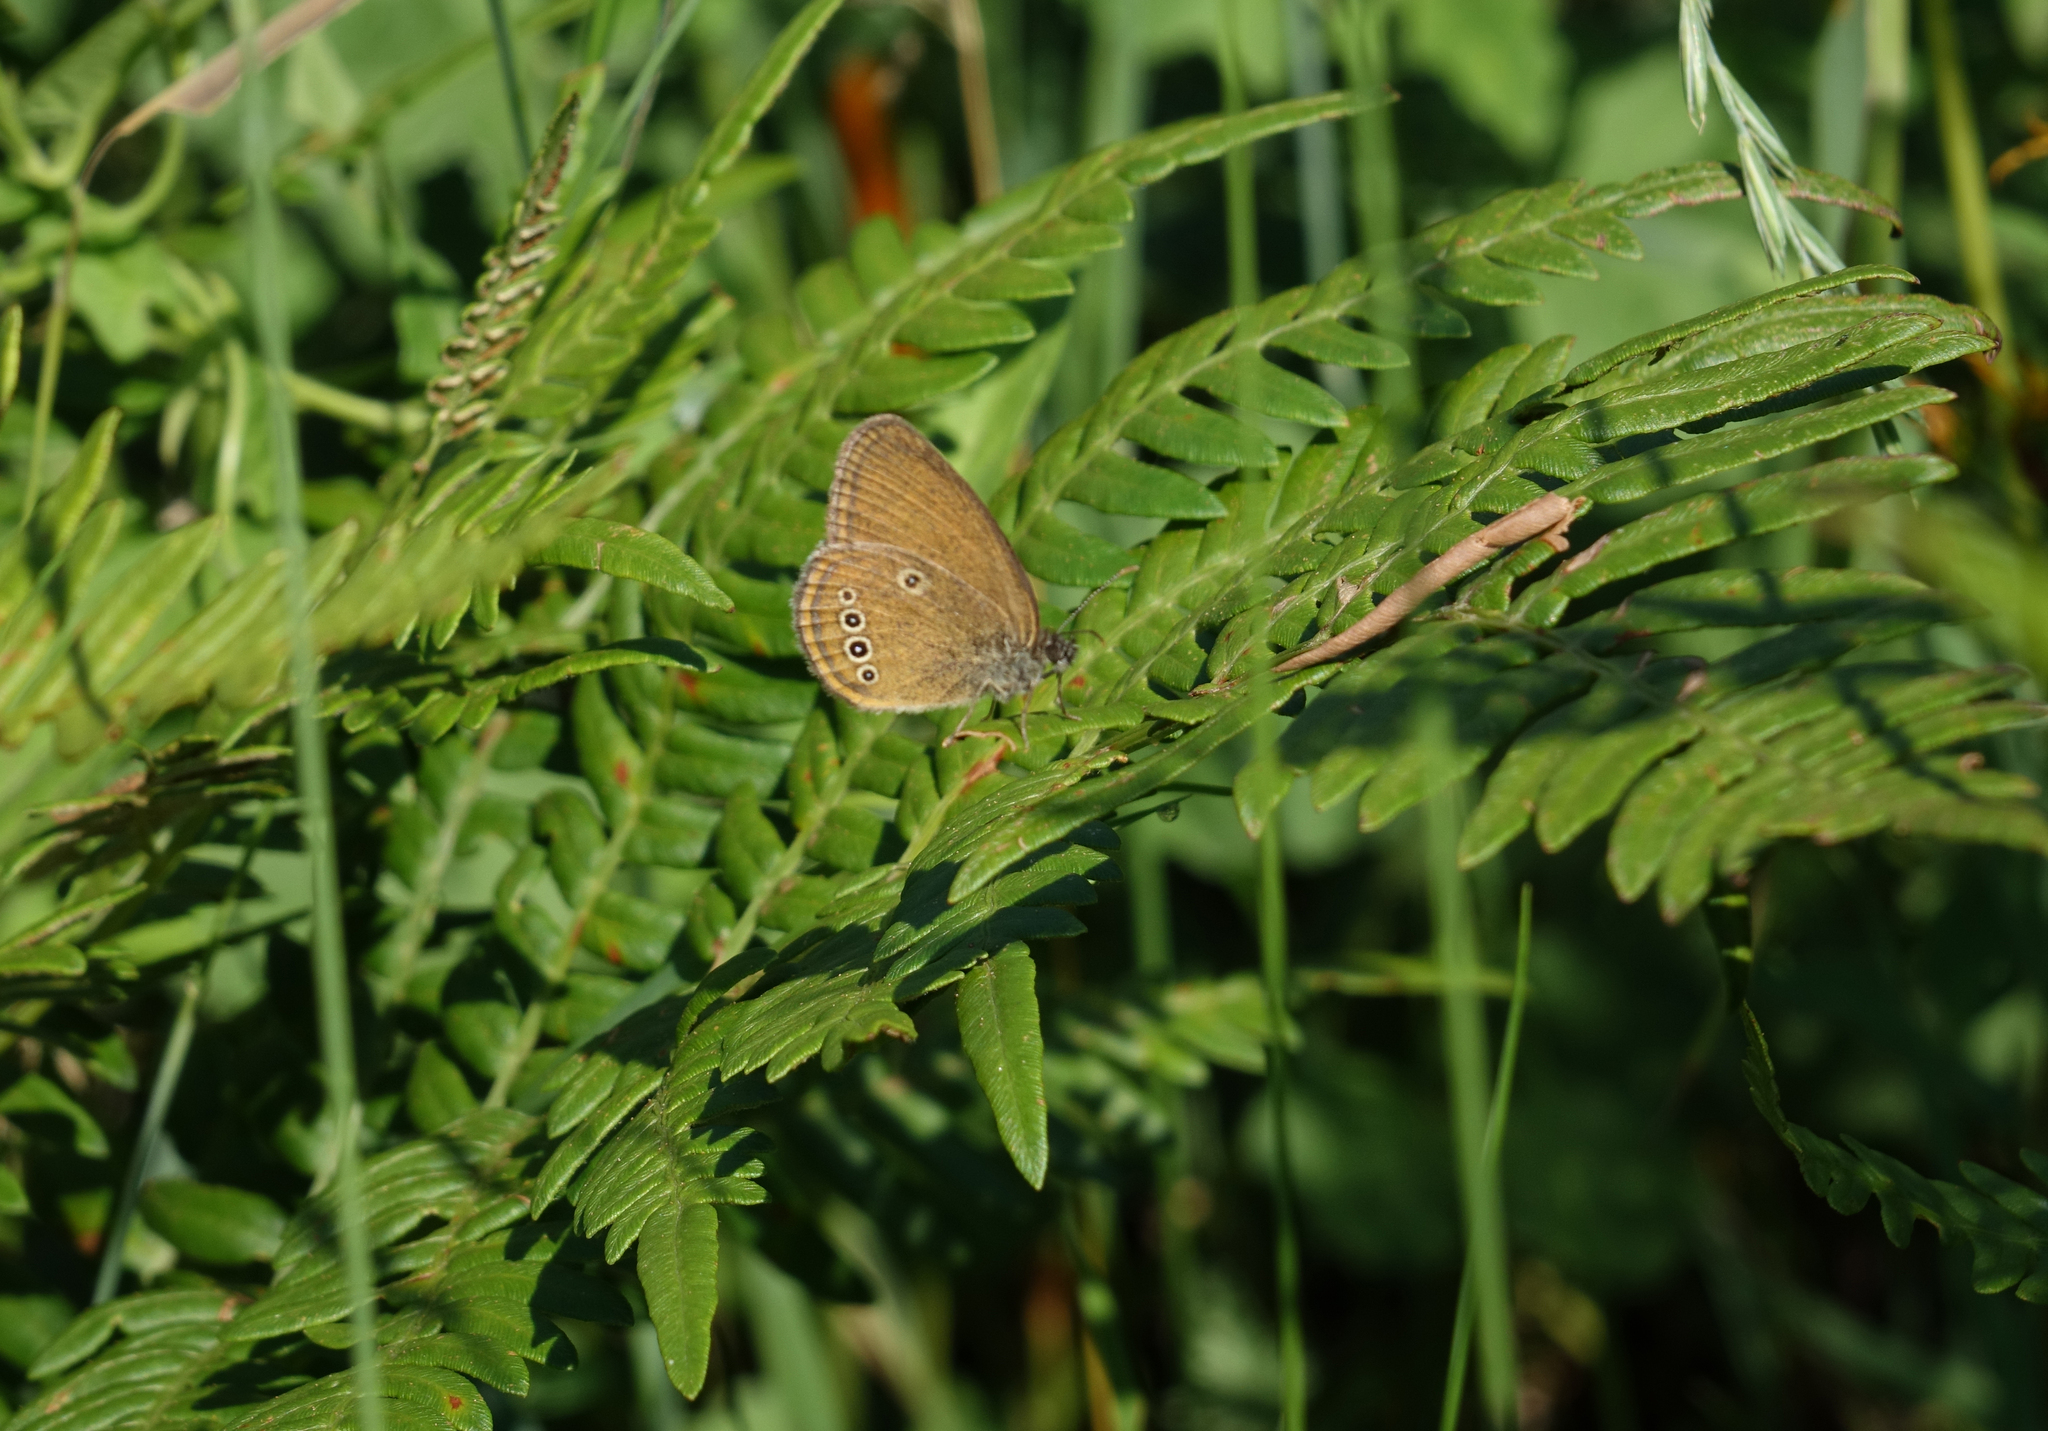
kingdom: Animalia
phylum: Arthropoda
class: Insecta
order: Lepidoptera
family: Nymphalidae
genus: Coenonympha
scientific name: Coenonympha oedippus
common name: False ringlet
